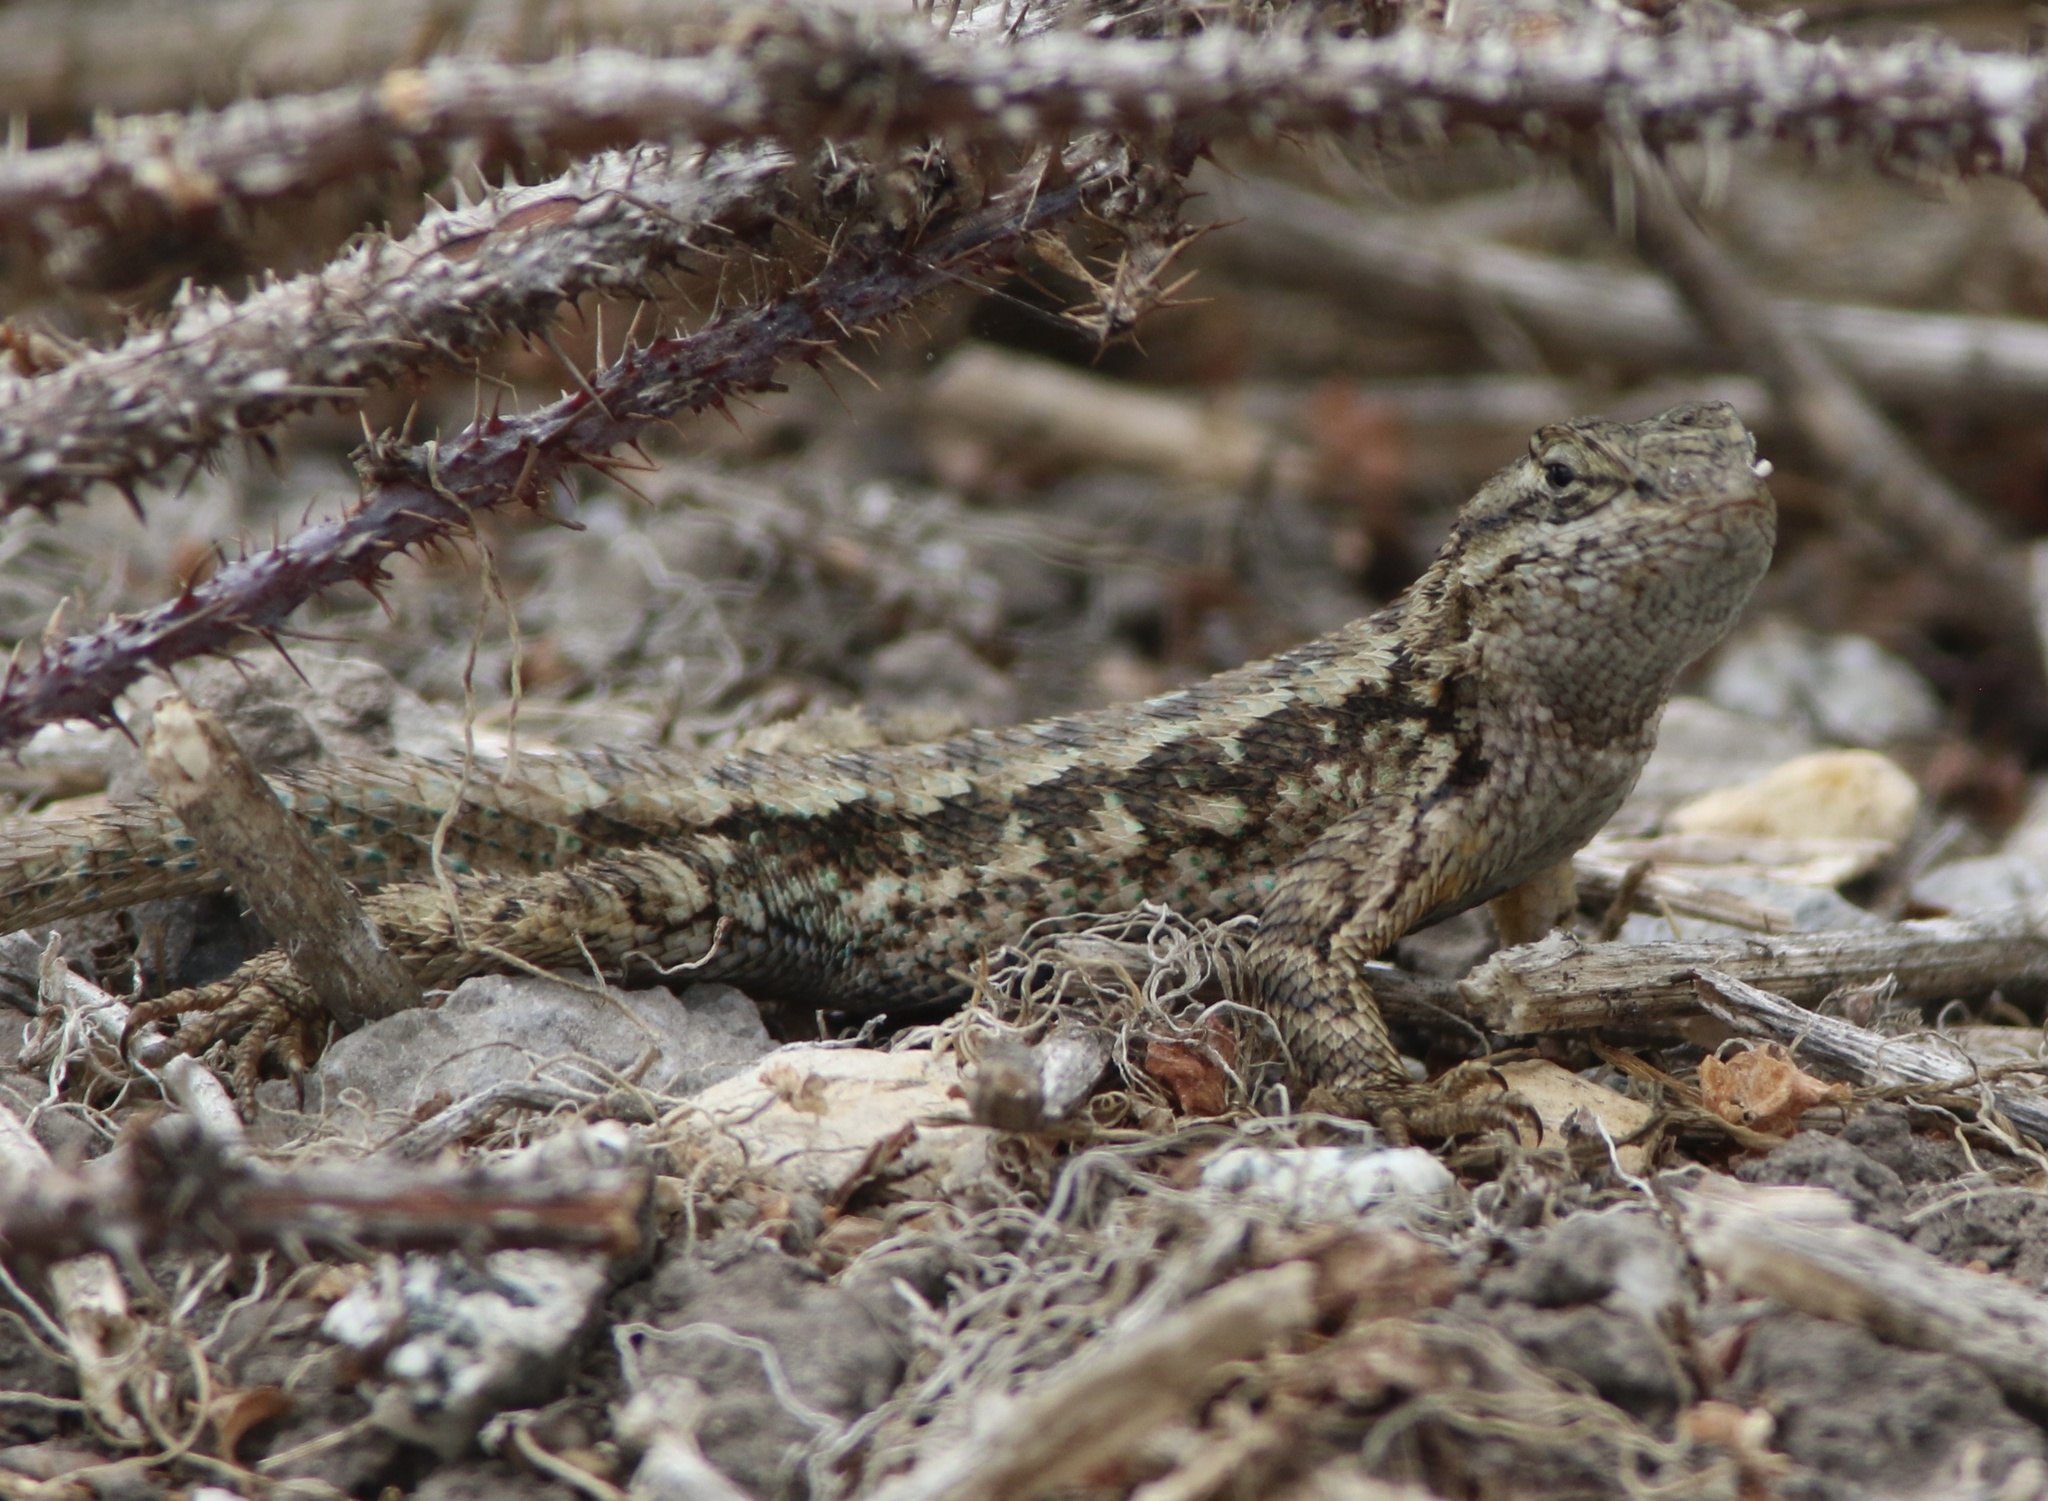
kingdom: Animalia
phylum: Chordata
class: Squamata
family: Phrynosomatidae
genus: Sceloporus
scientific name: Sceloporus occidentalis
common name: Western fence lizard
